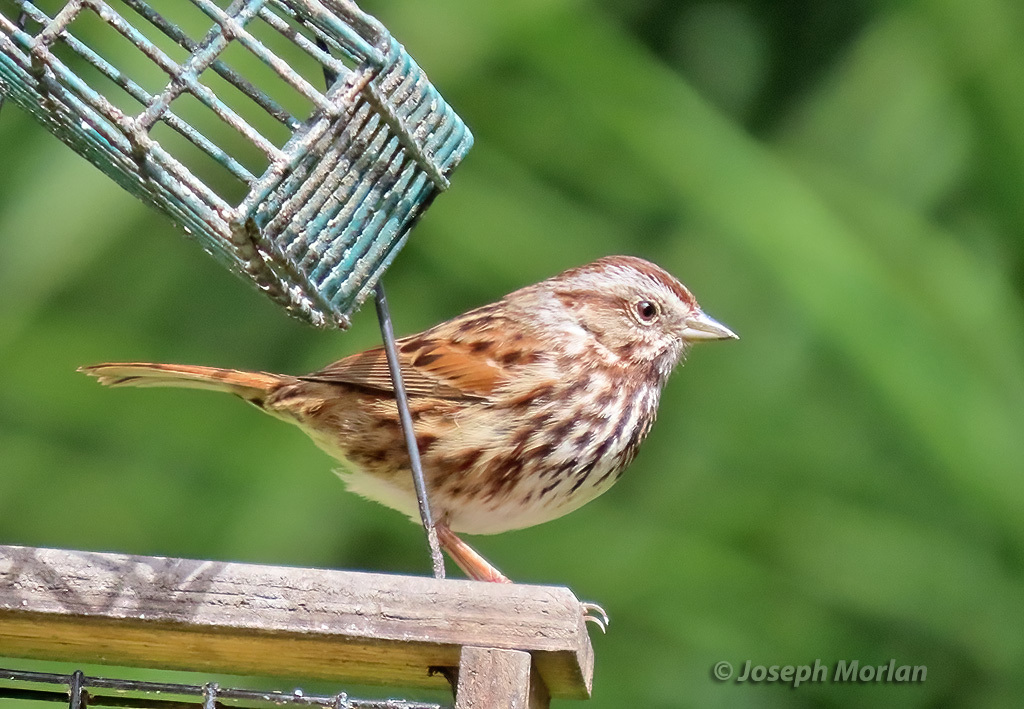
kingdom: Animalia
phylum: Chordata
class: Aves
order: Passeriformes
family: Passerellidae
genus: Melospiza
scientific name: Melospiza melodia
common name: Song sparrow
